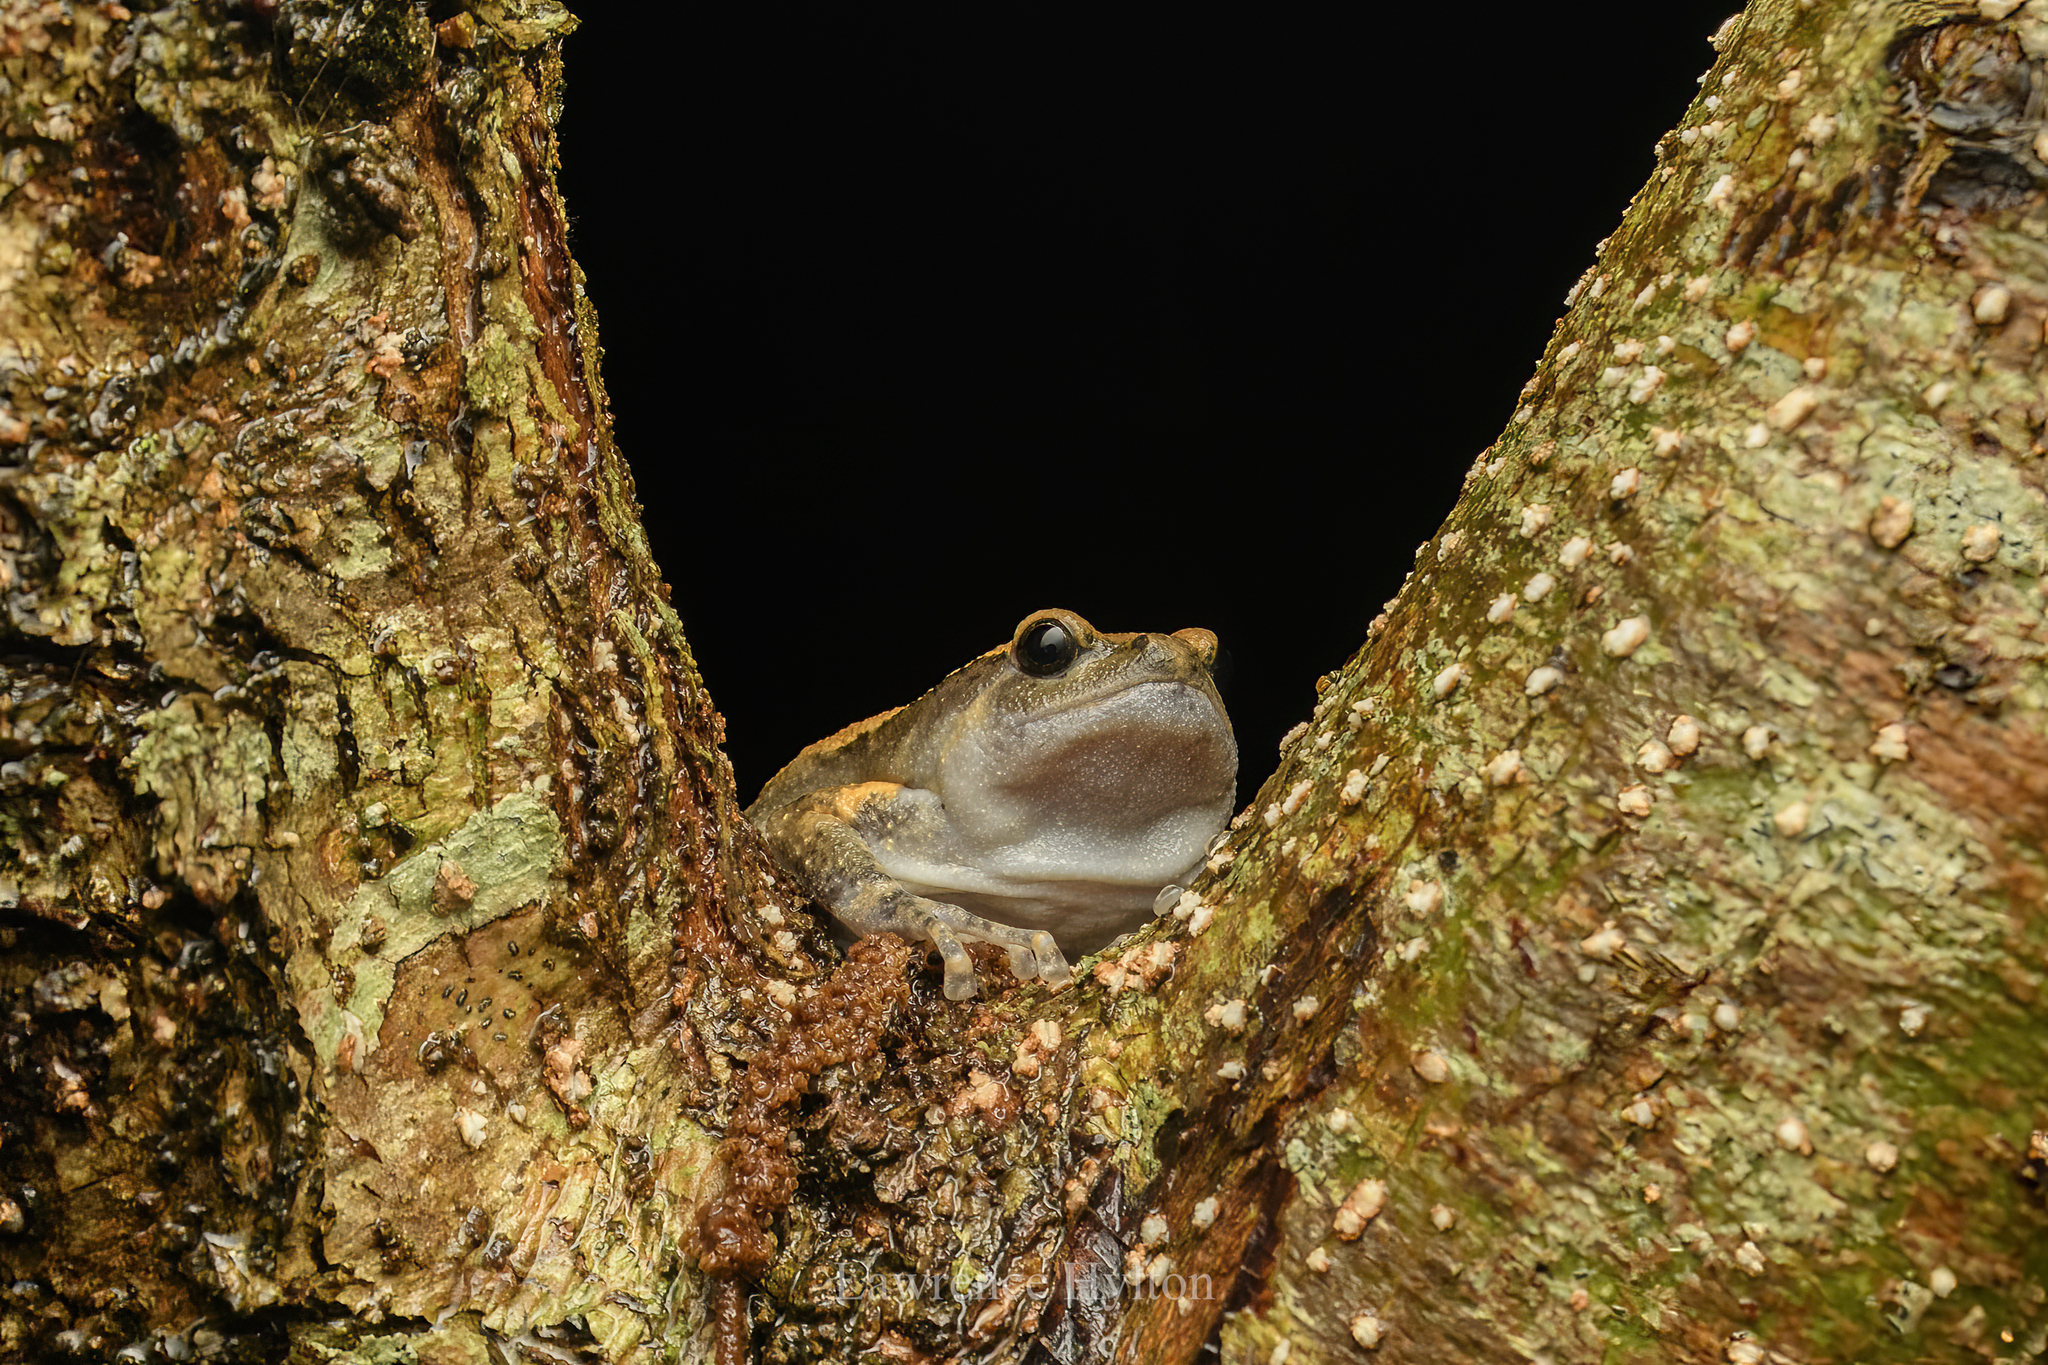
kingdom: Animalia
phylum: Chordata
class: Amphibia
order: Anura
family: Microhylidae
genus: Kaloula
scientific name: Kaloula pulchra
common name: Common,banded bullfrog
